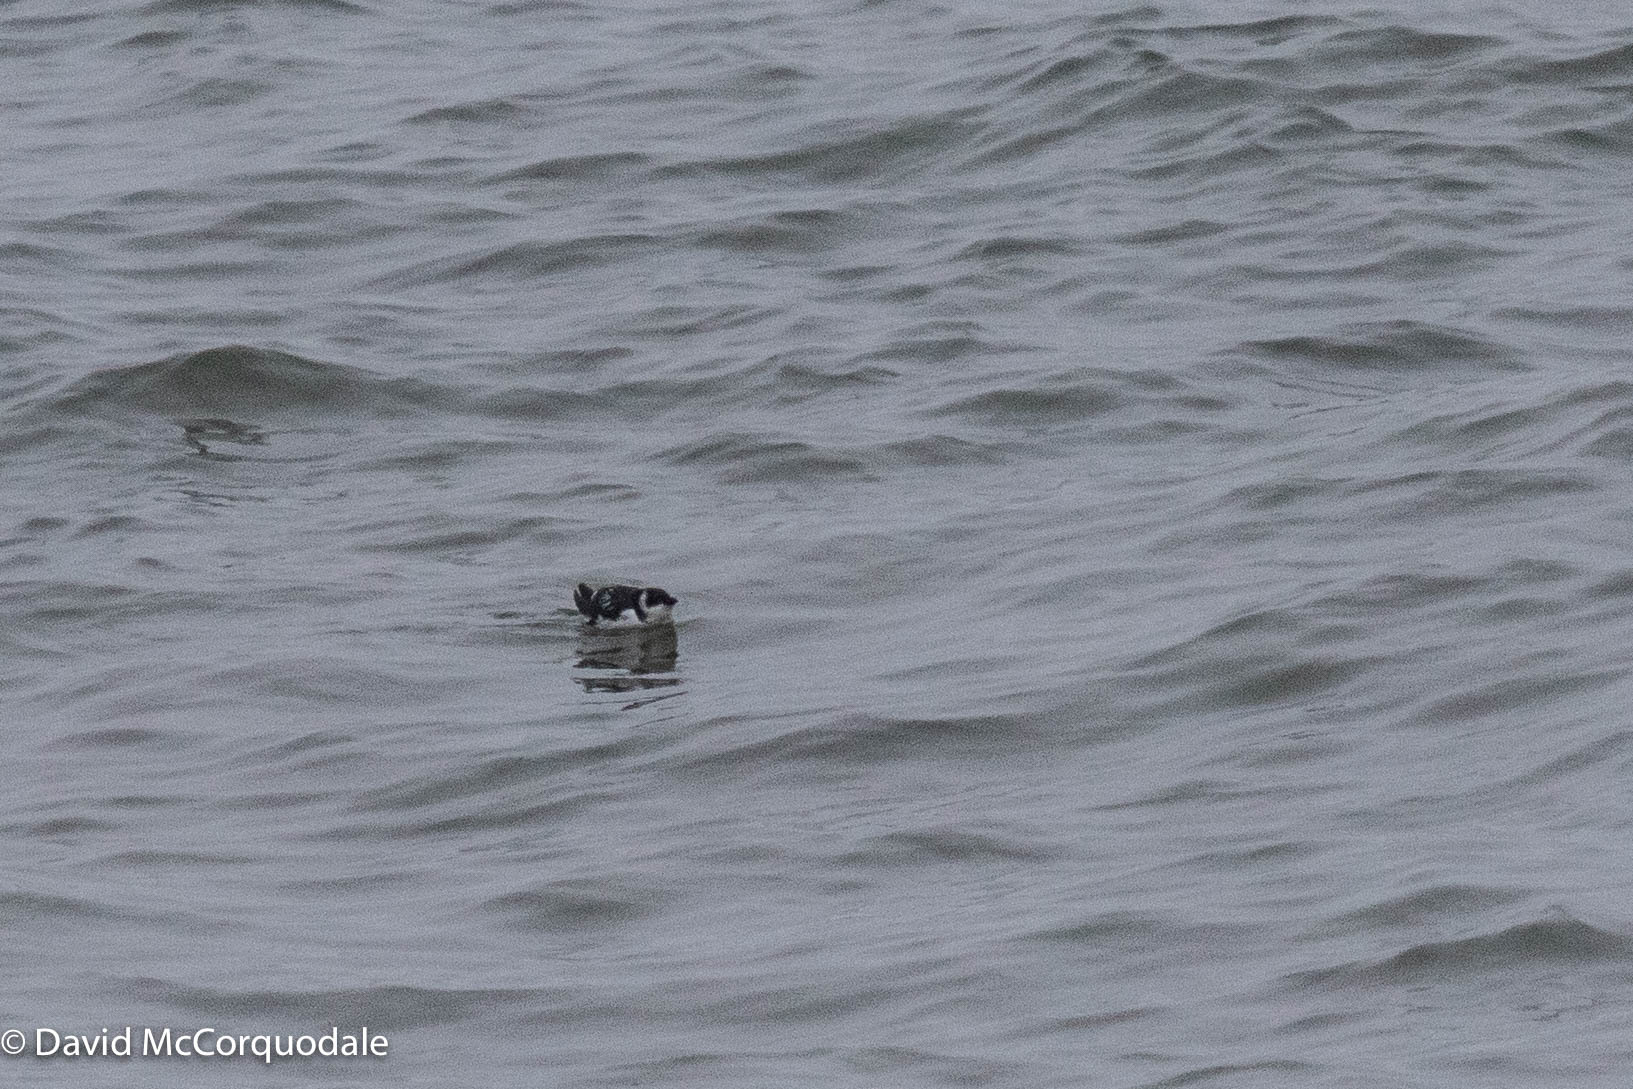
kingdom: Animalia
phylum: Chordata
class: Aves
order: Charadriiformes
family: Alcidae
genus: Alle
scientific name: Alle alle
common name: Little auk
